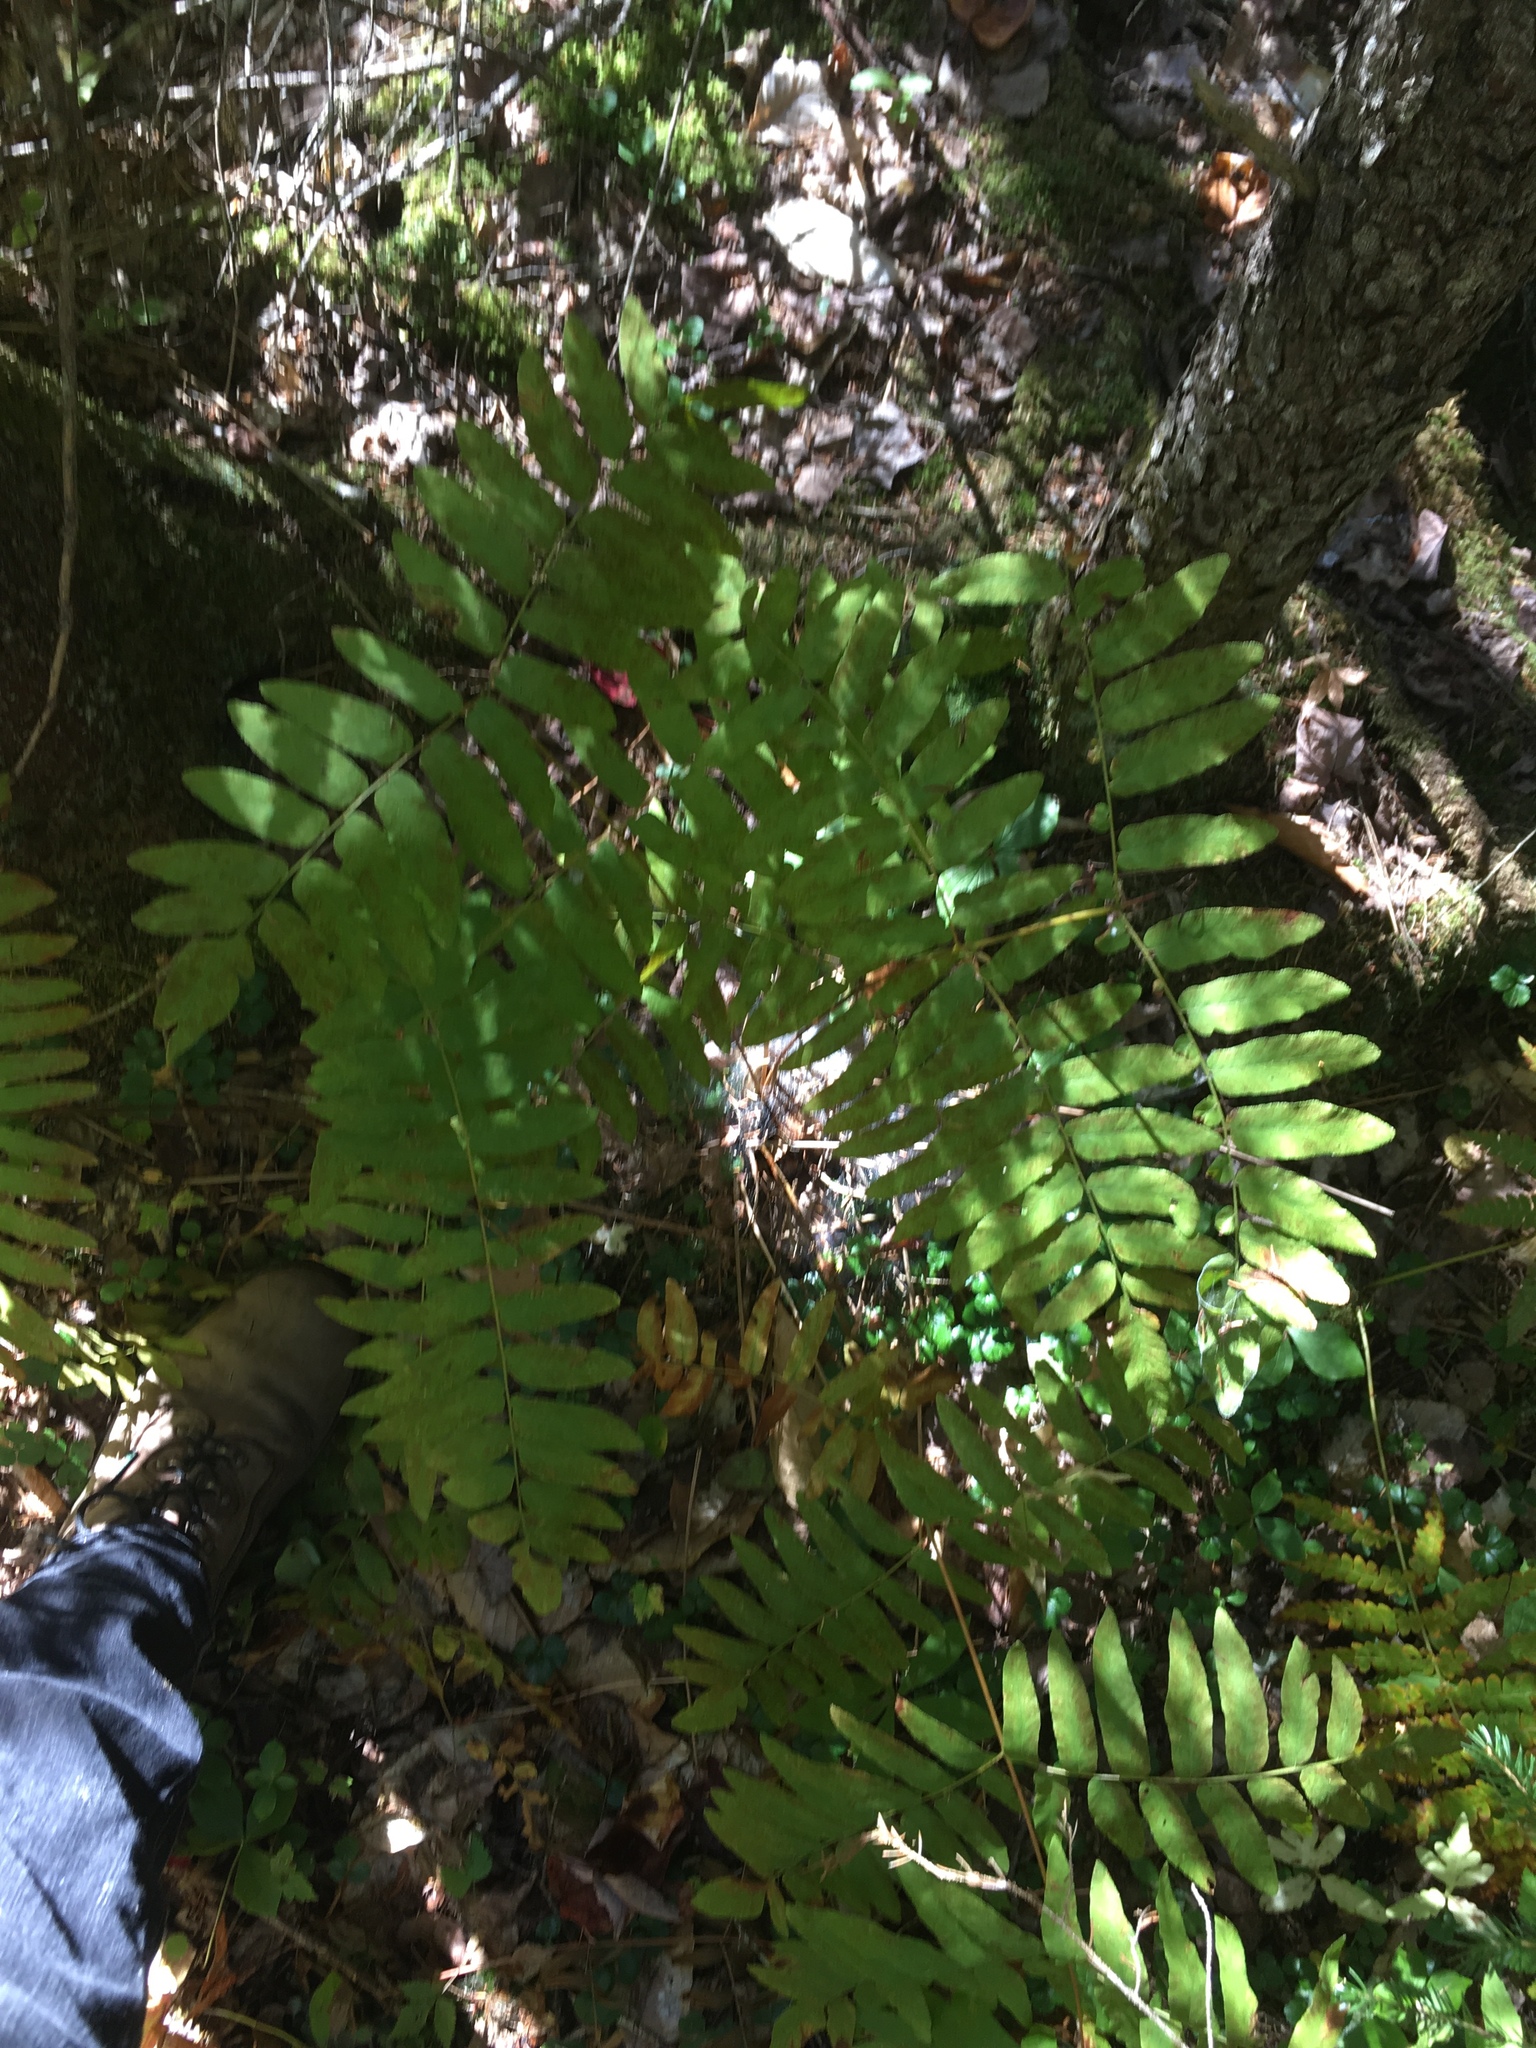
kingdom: Plantae
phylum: Tracheophyta
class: Polypodiopsida
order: Osmundales
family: Osmundaceae
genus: Osmunda
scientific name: Osmunda spectabilis
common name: American royal fern
